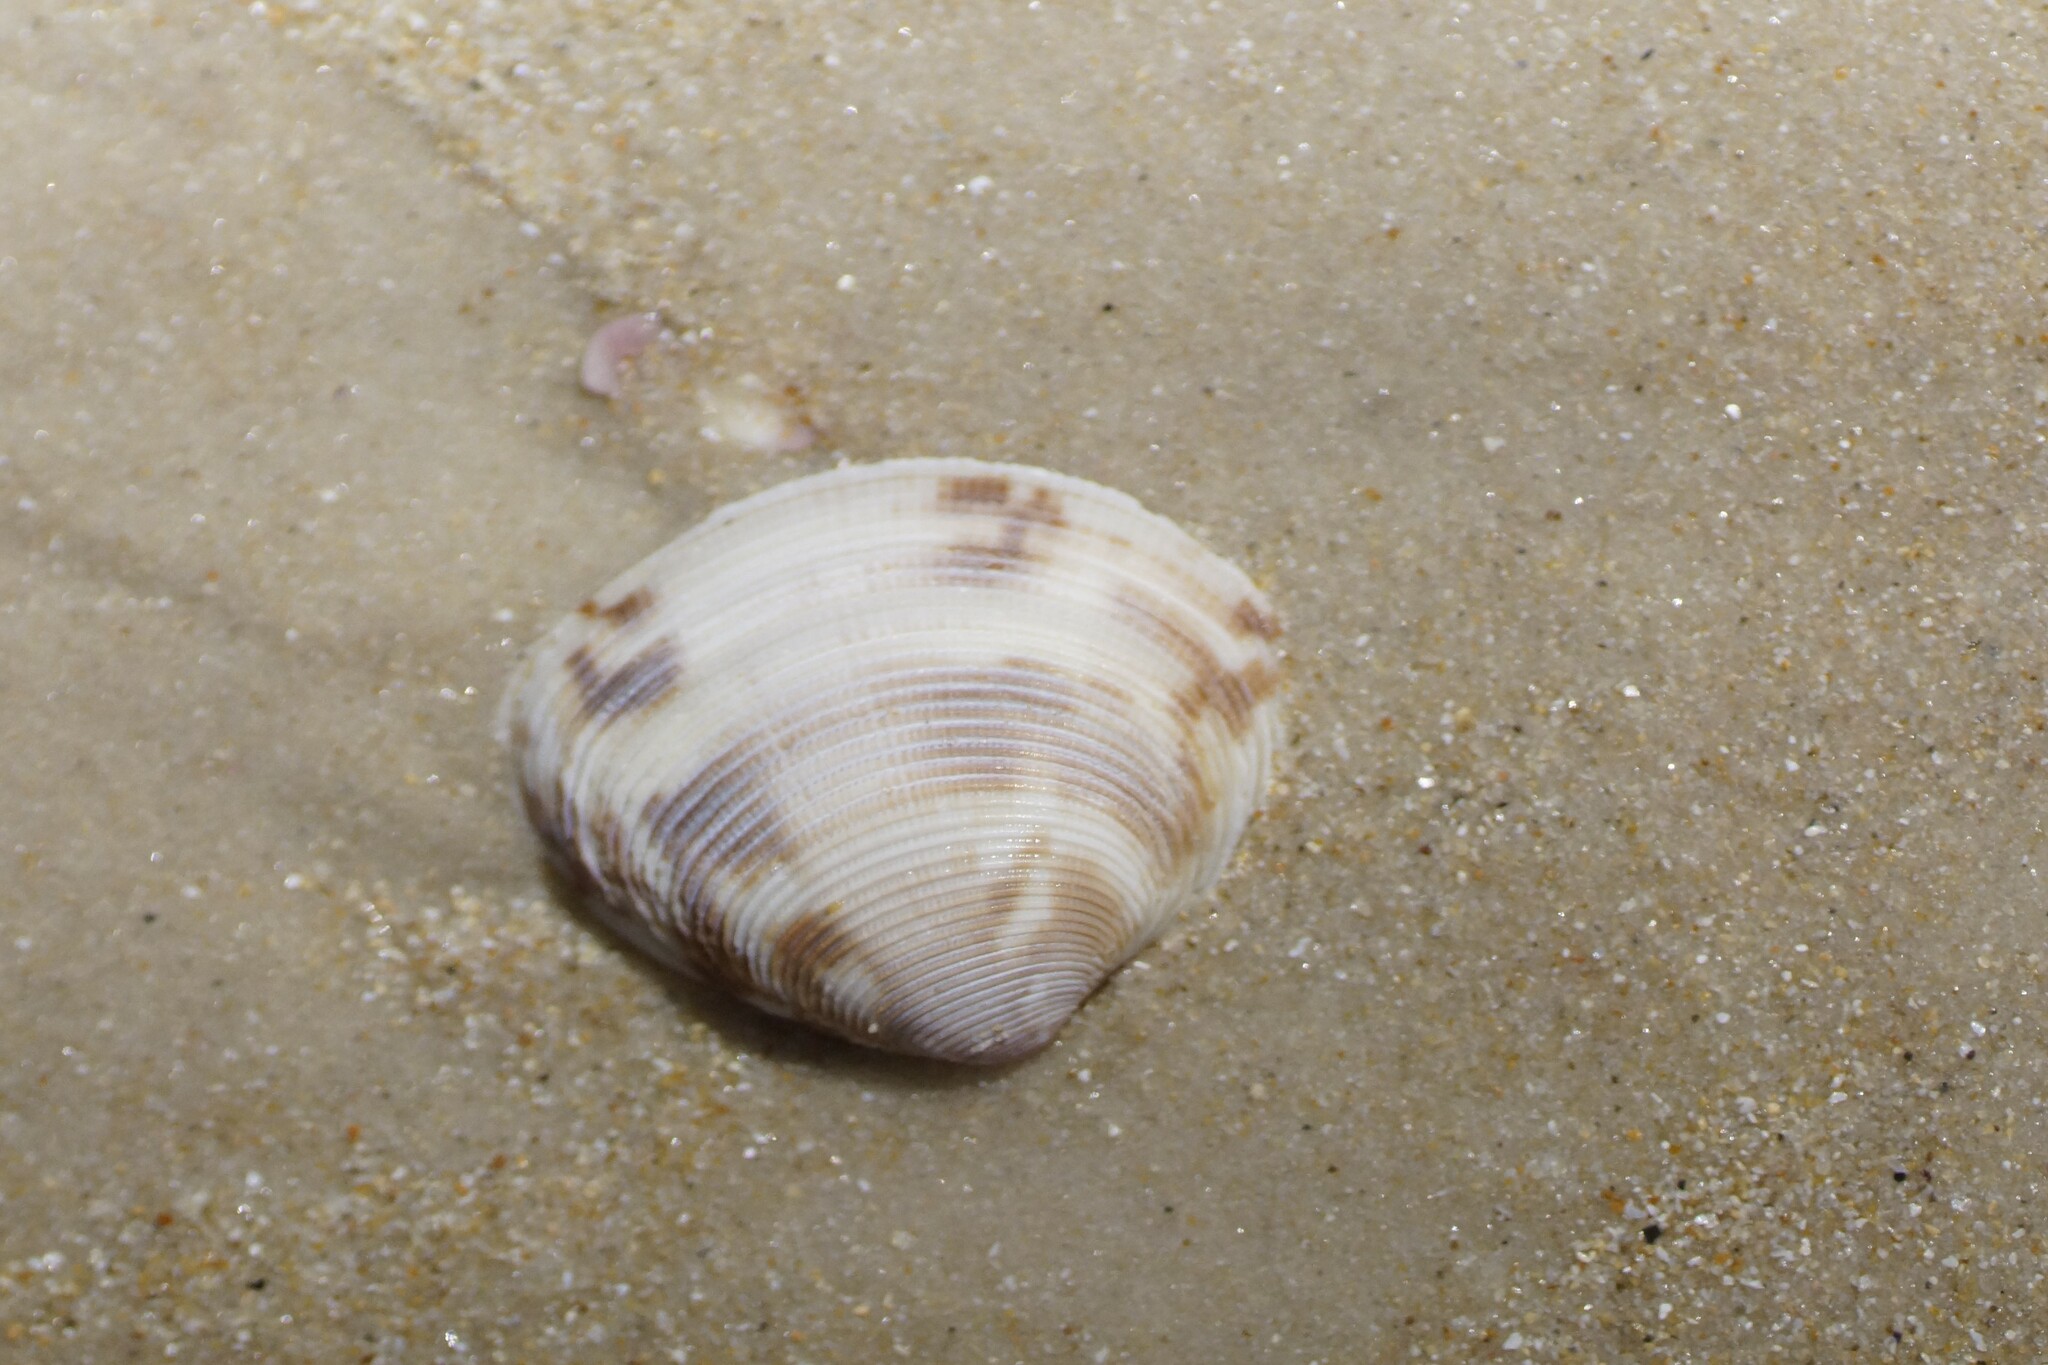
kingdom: Animalia
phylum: Mollusca
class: Bivalvia
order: Venerida
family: Veneridae
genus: Tawera
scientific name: Tawera lagopus
